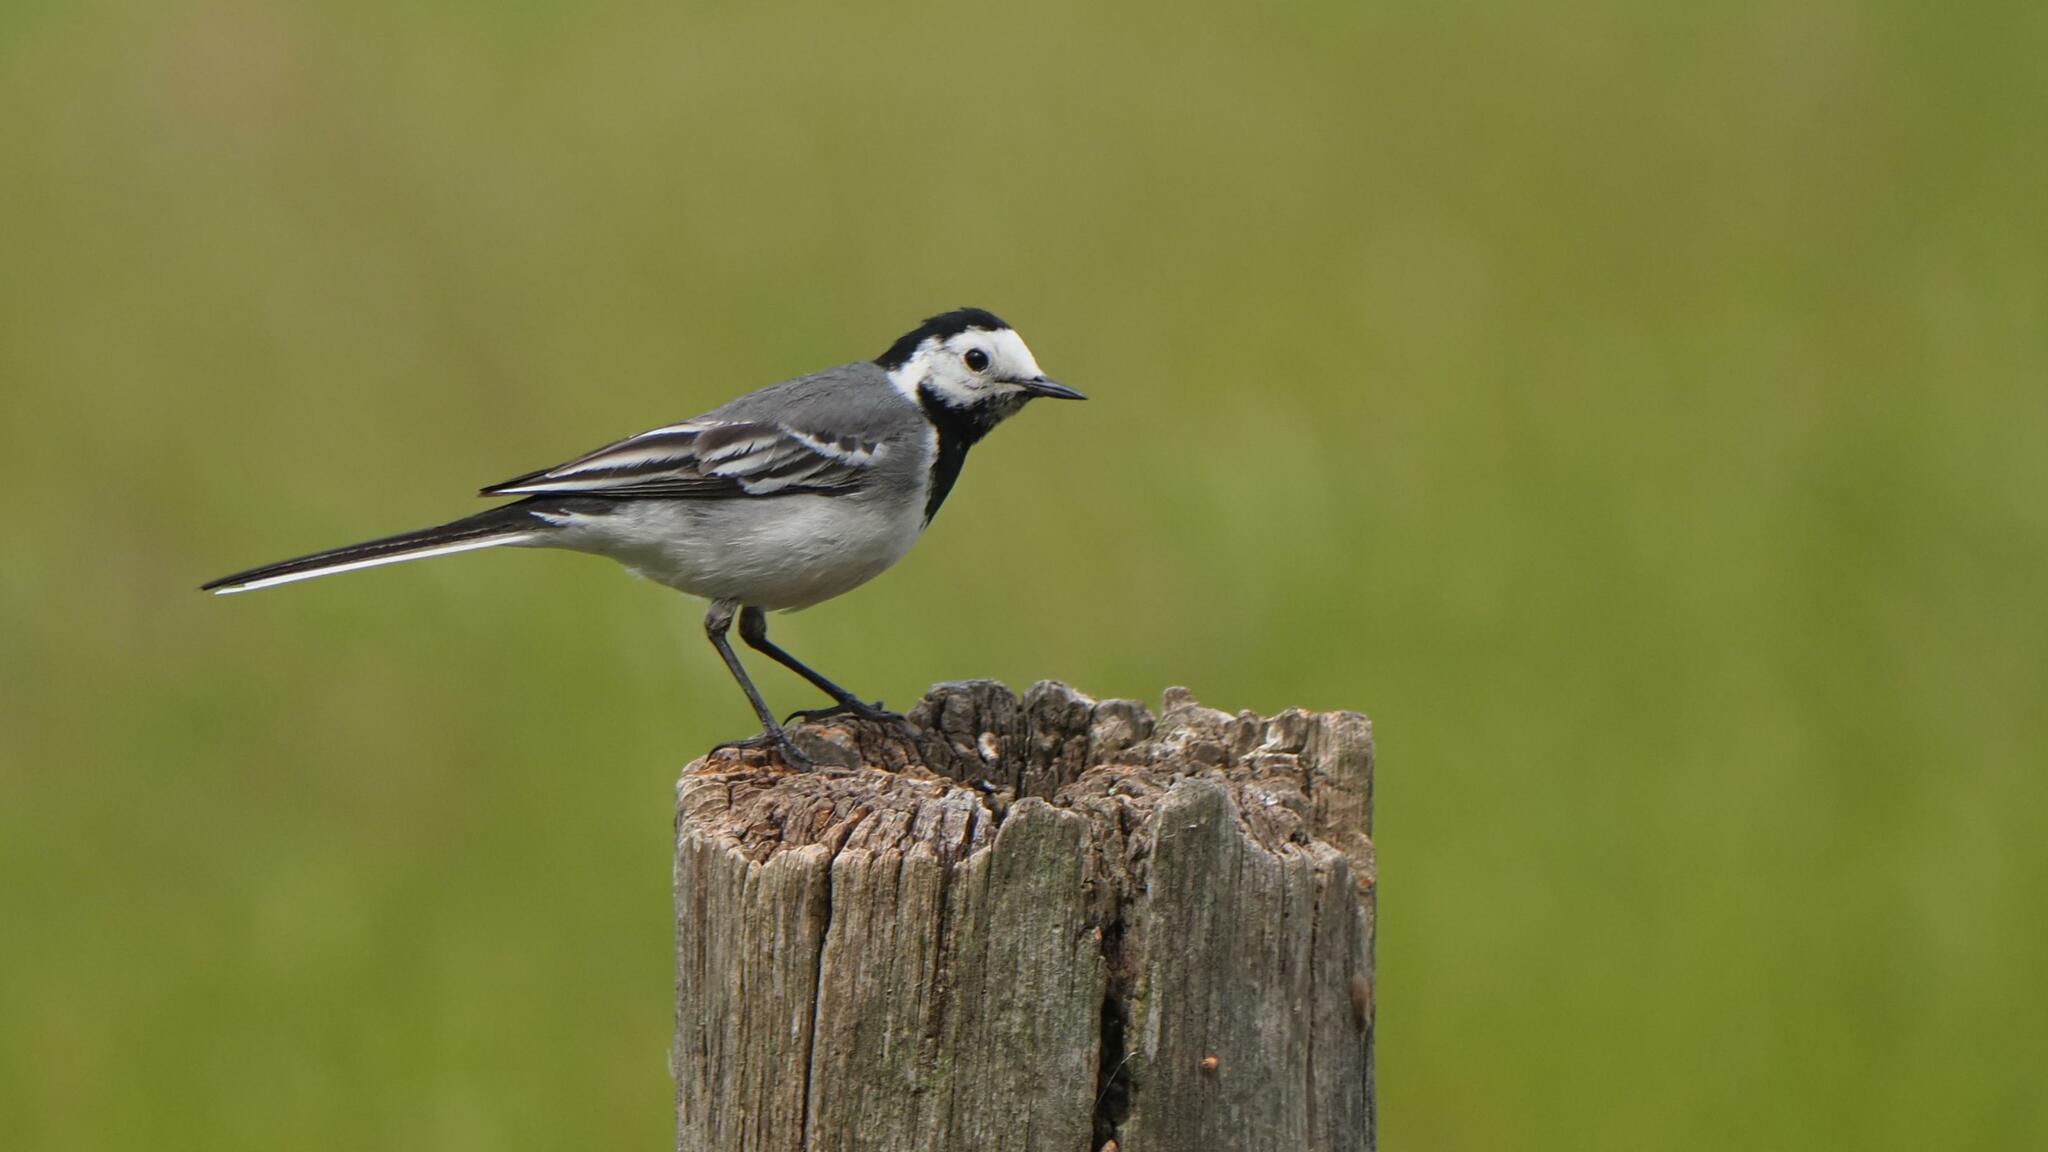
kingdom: Animalia
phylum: Chordata
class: Aves
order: Passeriformes
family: Motacillidae
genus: Motacilla
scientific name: Motacilla alba
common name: White wagtail
